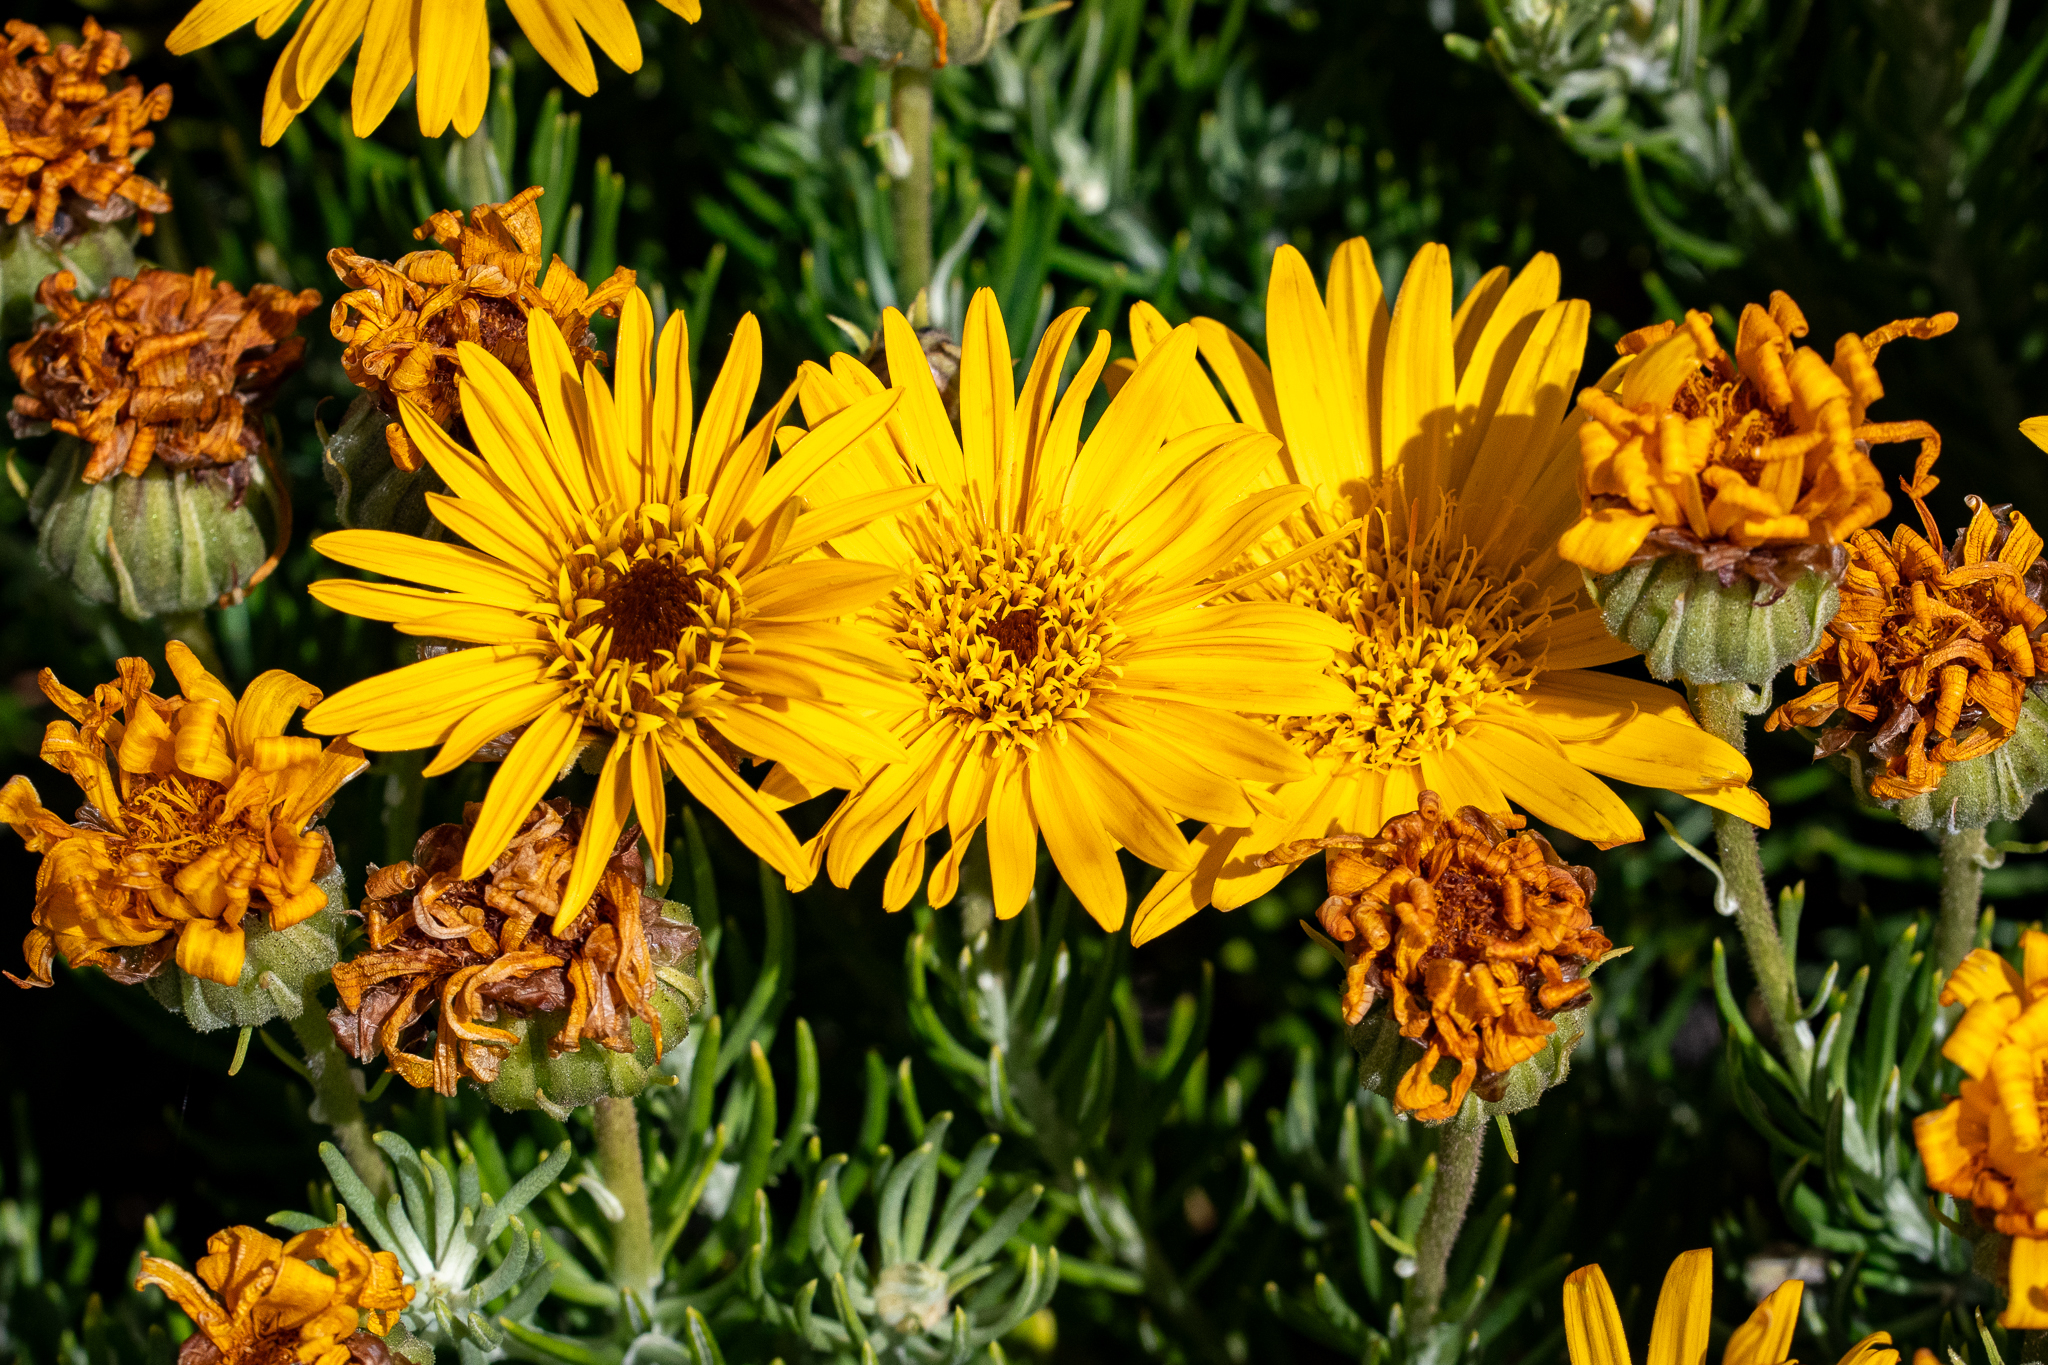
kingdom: Plantae
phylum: Tracheophyta
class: Magnoliopsida
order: Asterales
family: Asteraceae
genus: Heterolepis
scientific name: Heterolepis aliena
